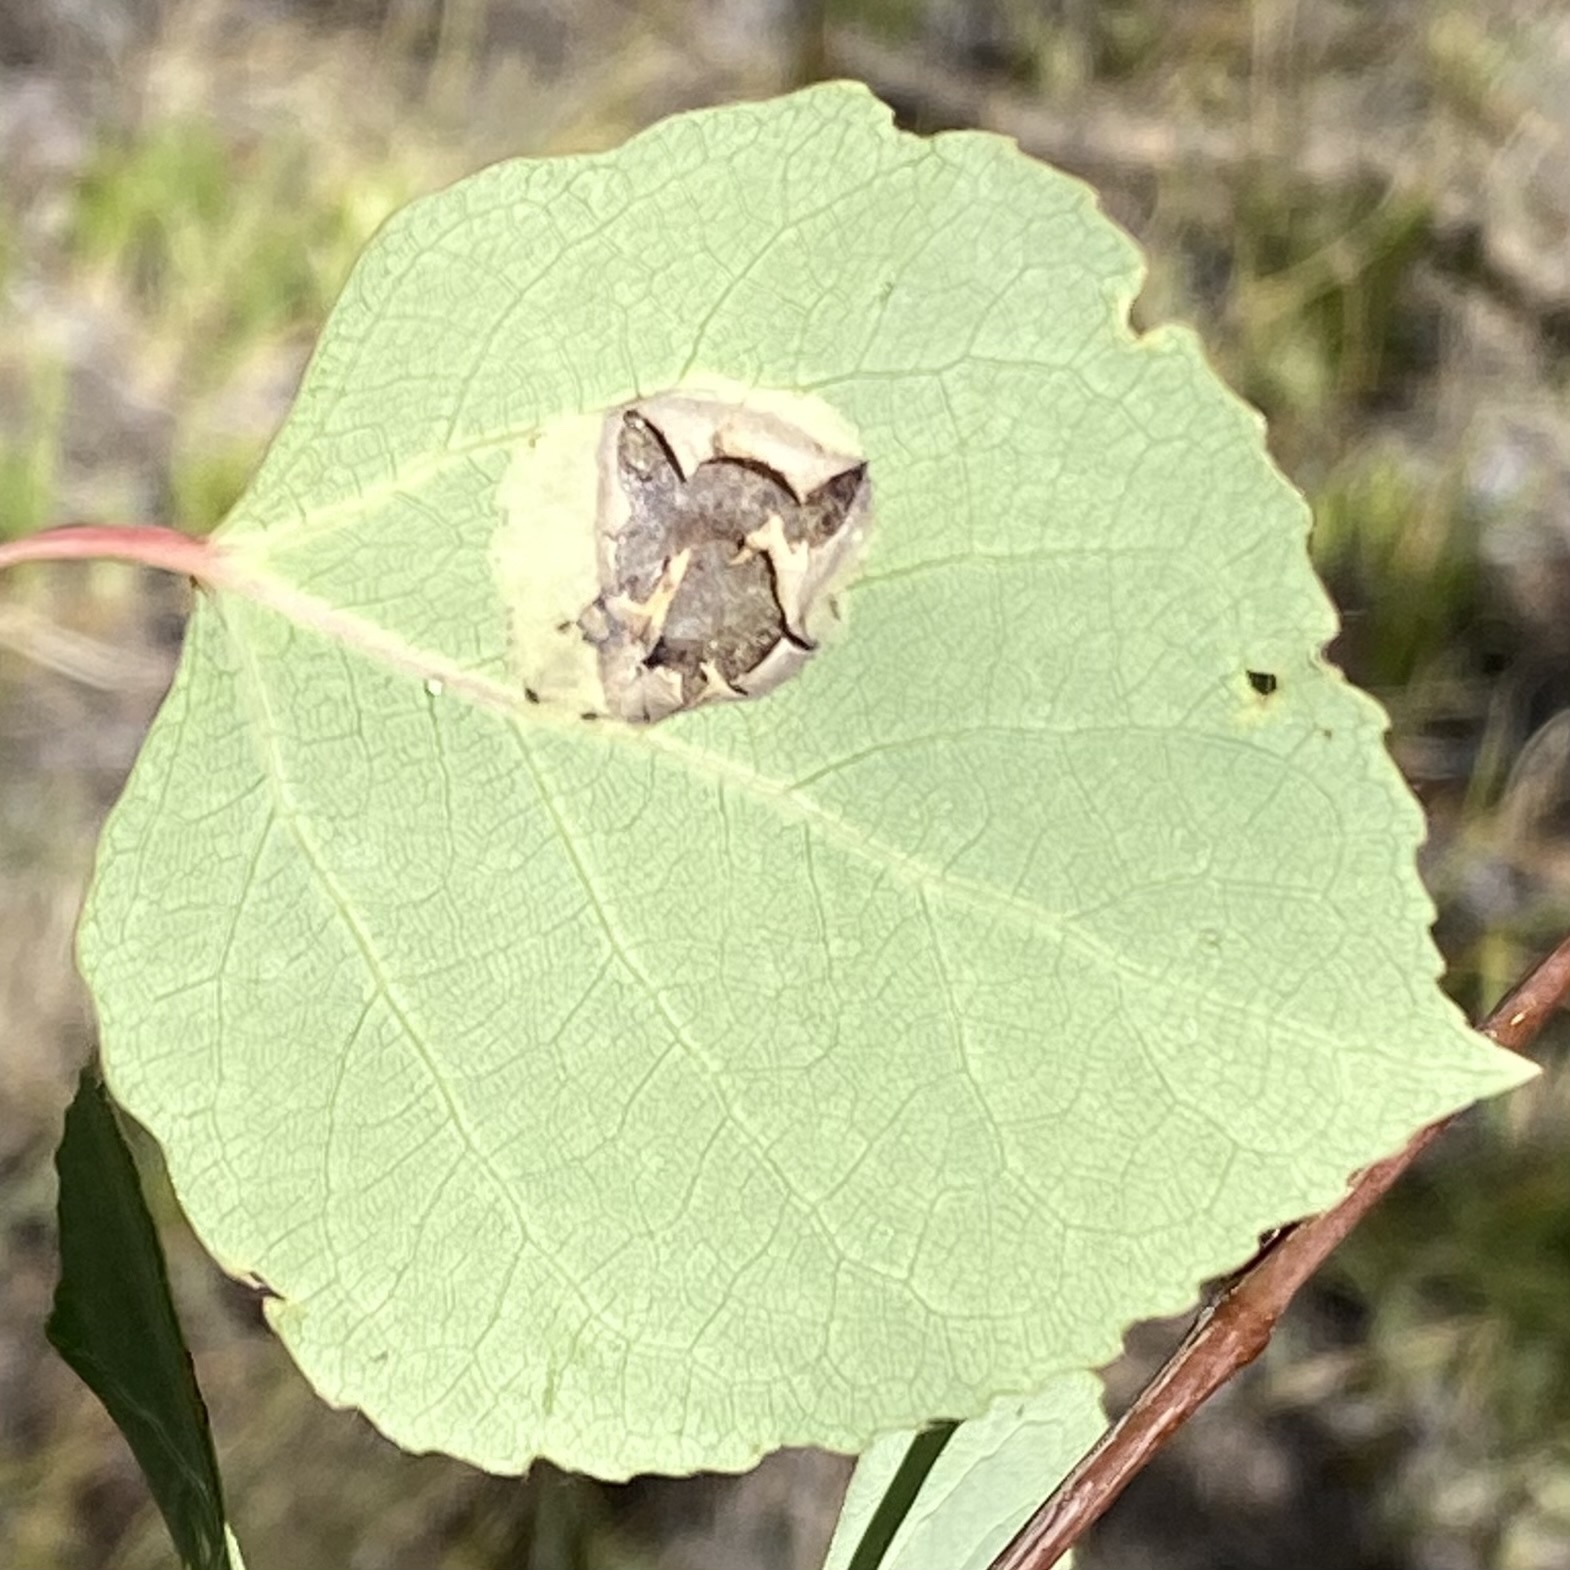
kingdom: Animalia
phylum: Arthropoda
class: Insecta
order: Lepidoptera
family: Gracillariidae
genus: Phyllonorycter
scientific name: Phyllonorycter
